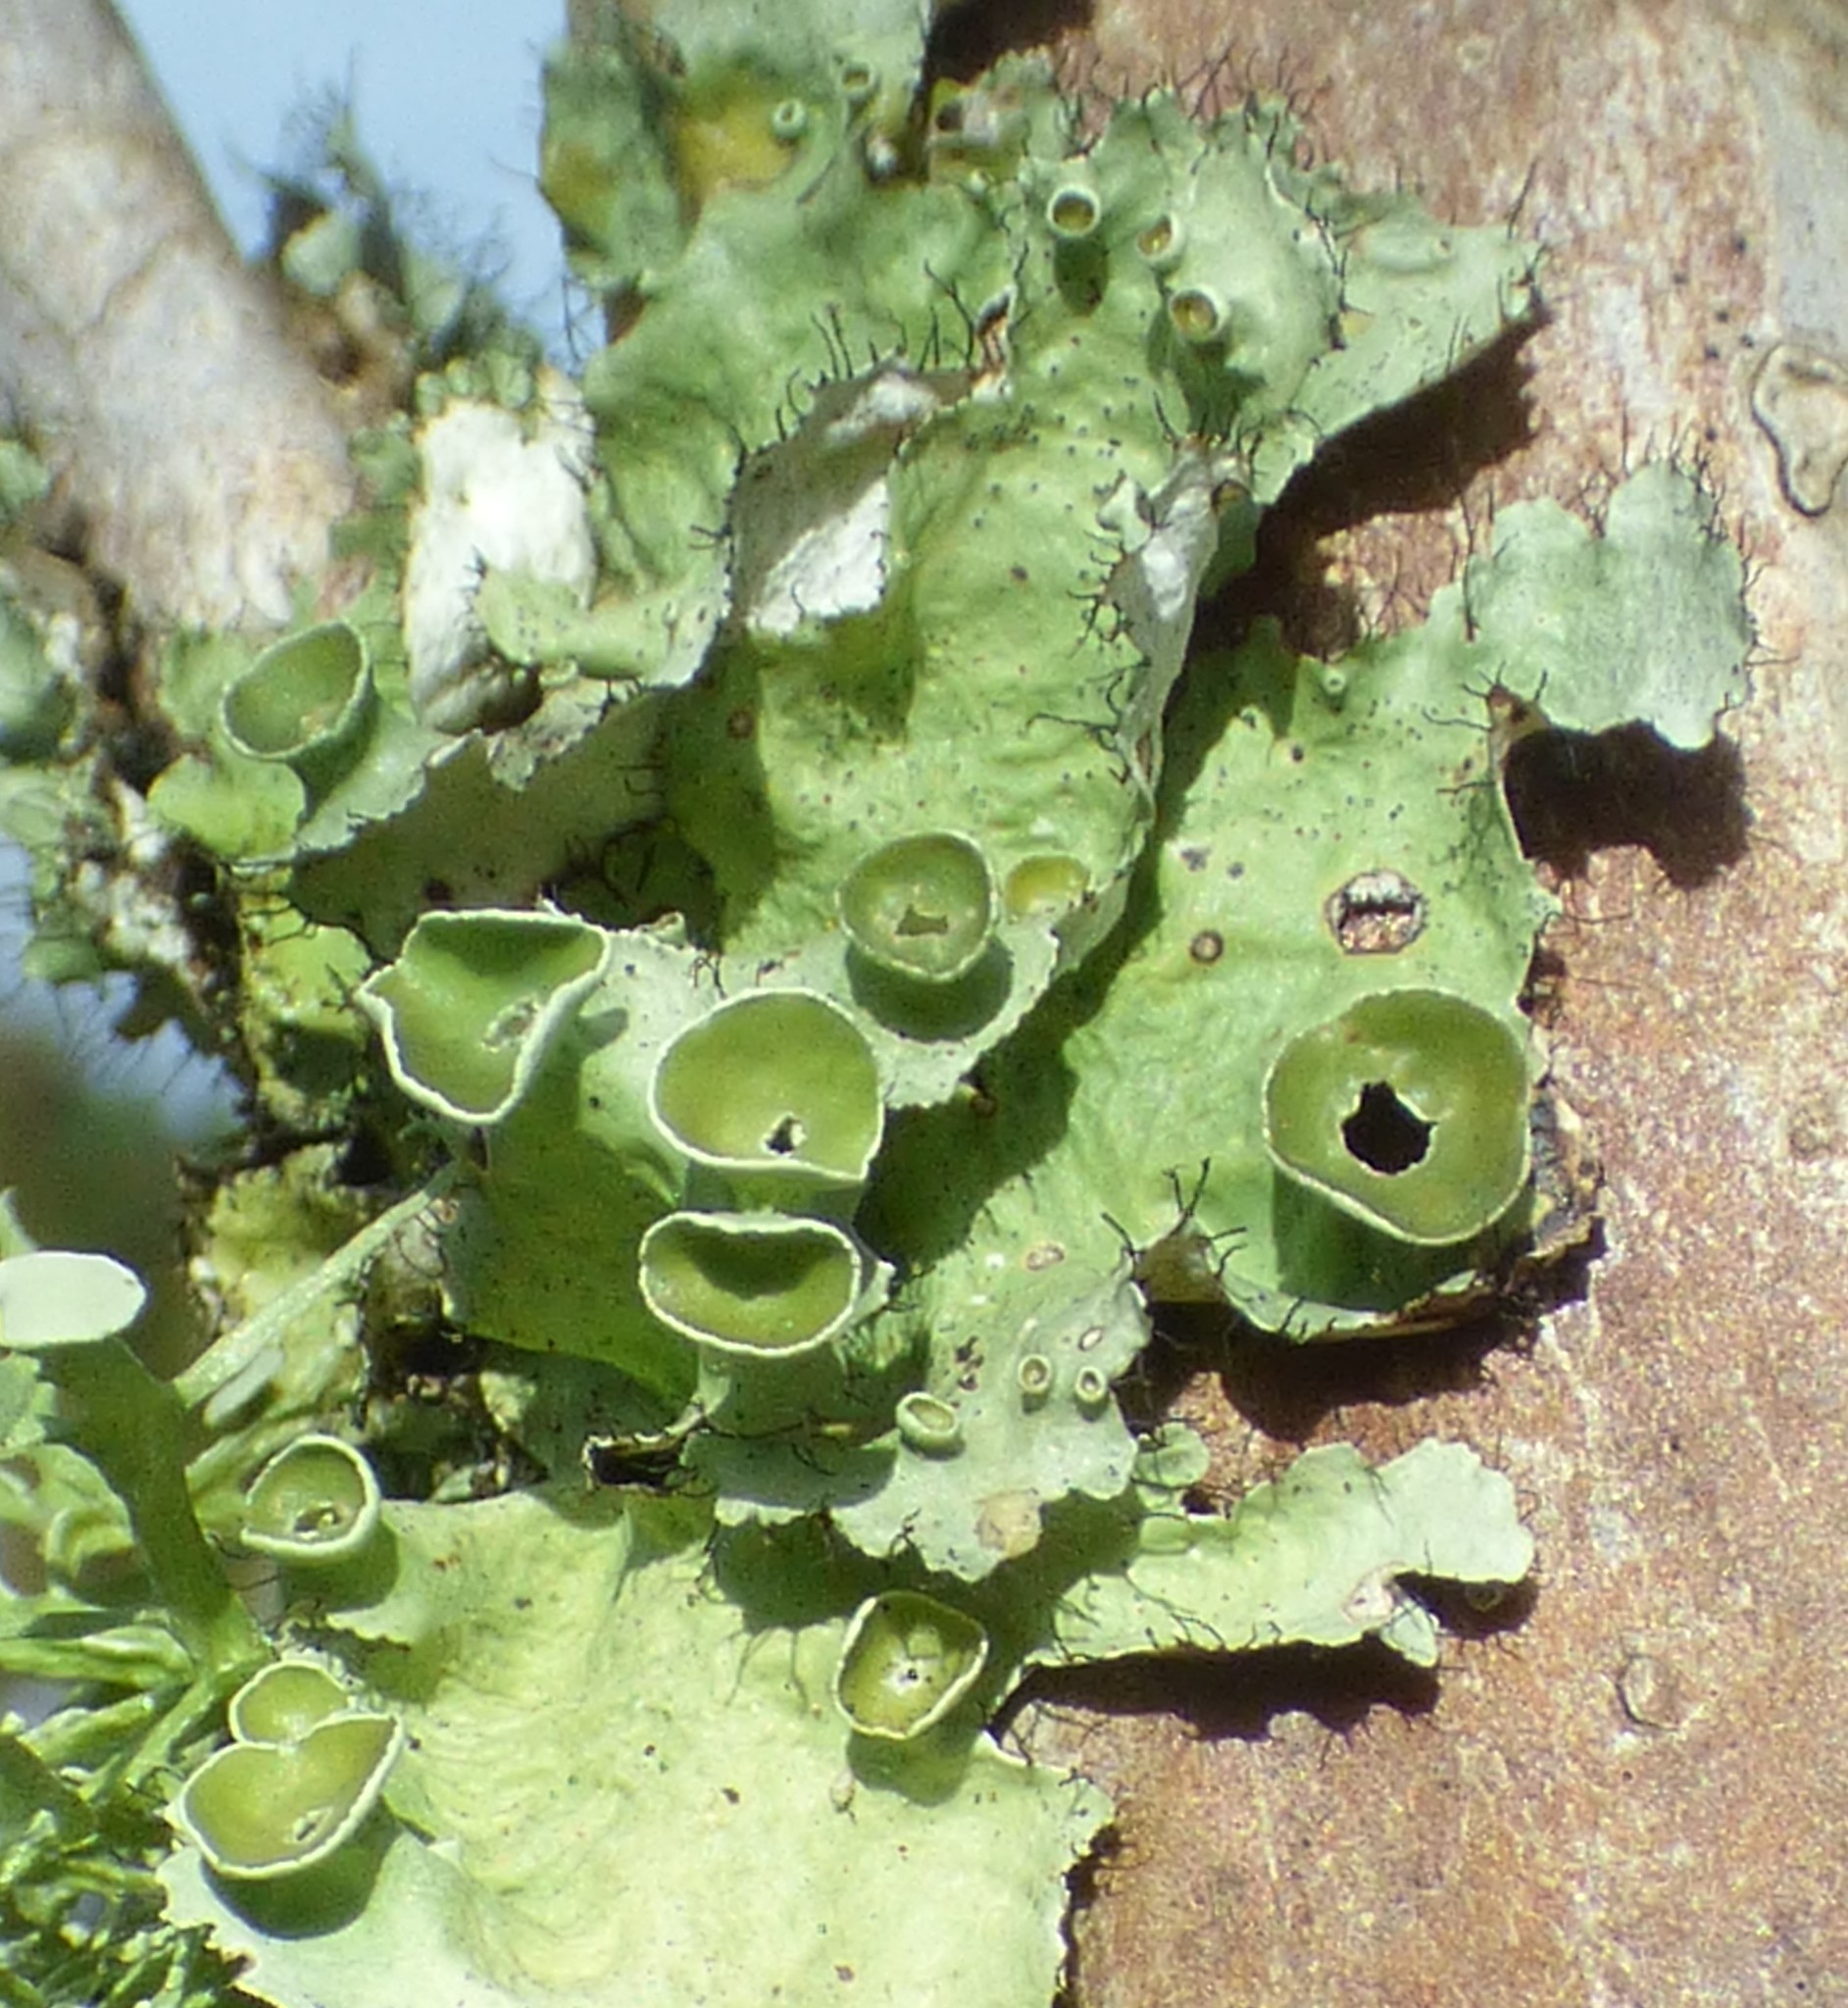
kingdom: Fungi
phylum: Ascomycota
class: Lecanoromycetes
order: Lecanorales
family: Parmeliaceae
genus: Parmotrema
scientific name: Parmotrema perforatum
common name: Perforated ruffle lichen
